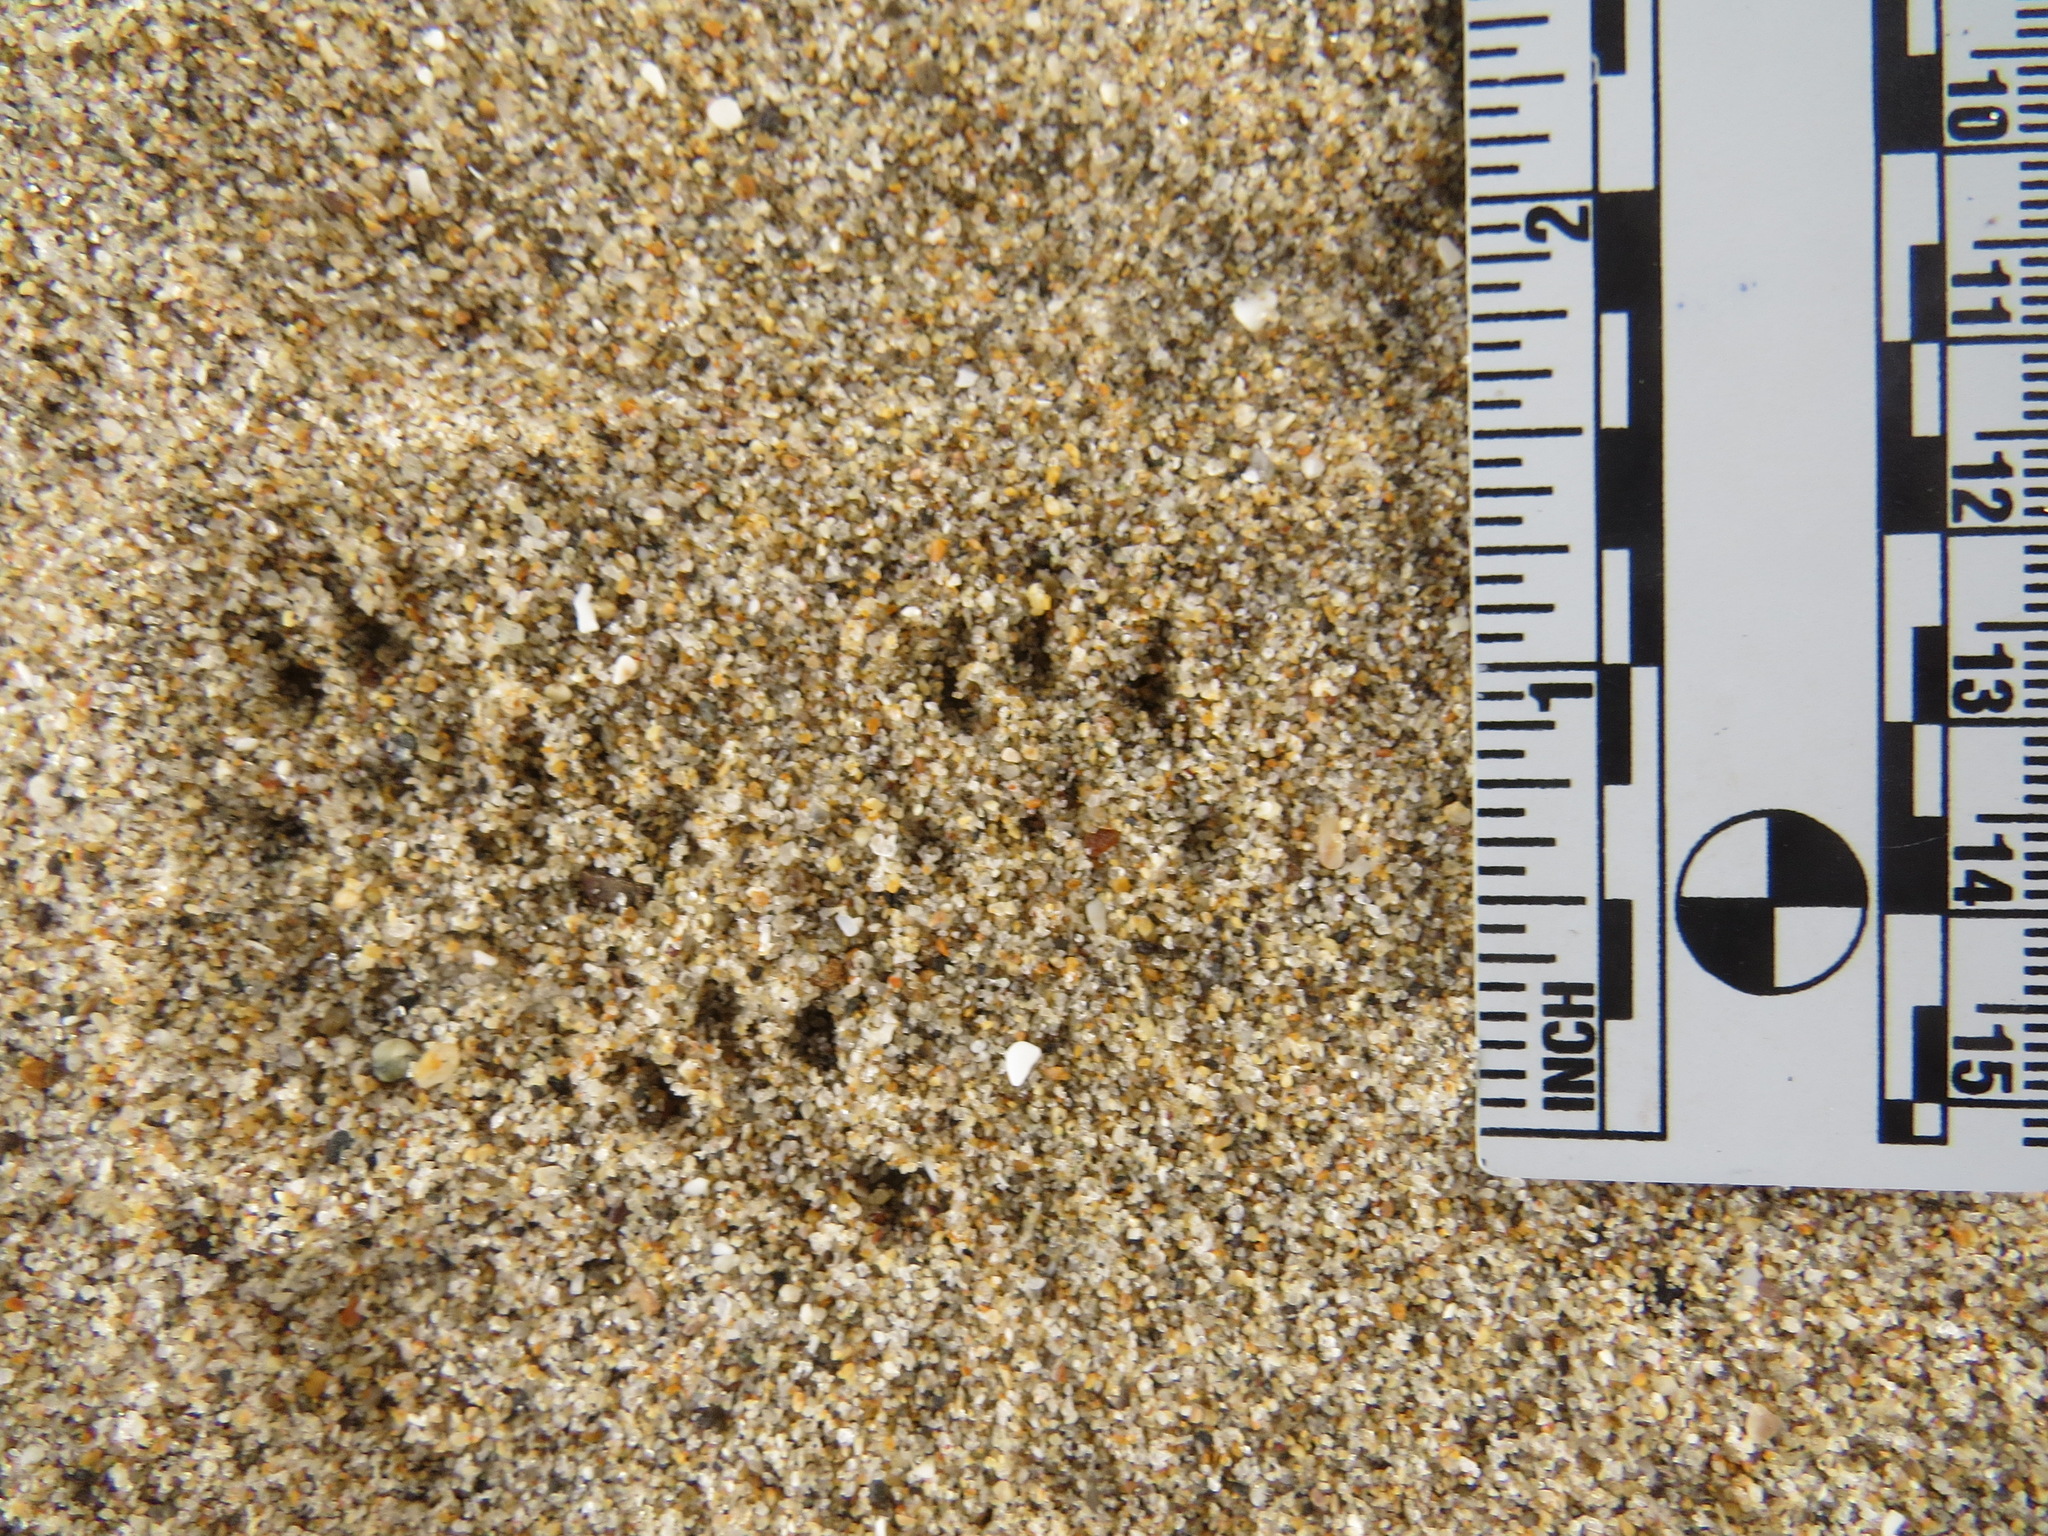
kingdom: Animalia
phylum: Chordata
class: Mammalia
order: Rodentia
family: Sciuridae
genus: Tamias
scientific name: Tamias merriami
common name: Merriam's chipmunk
